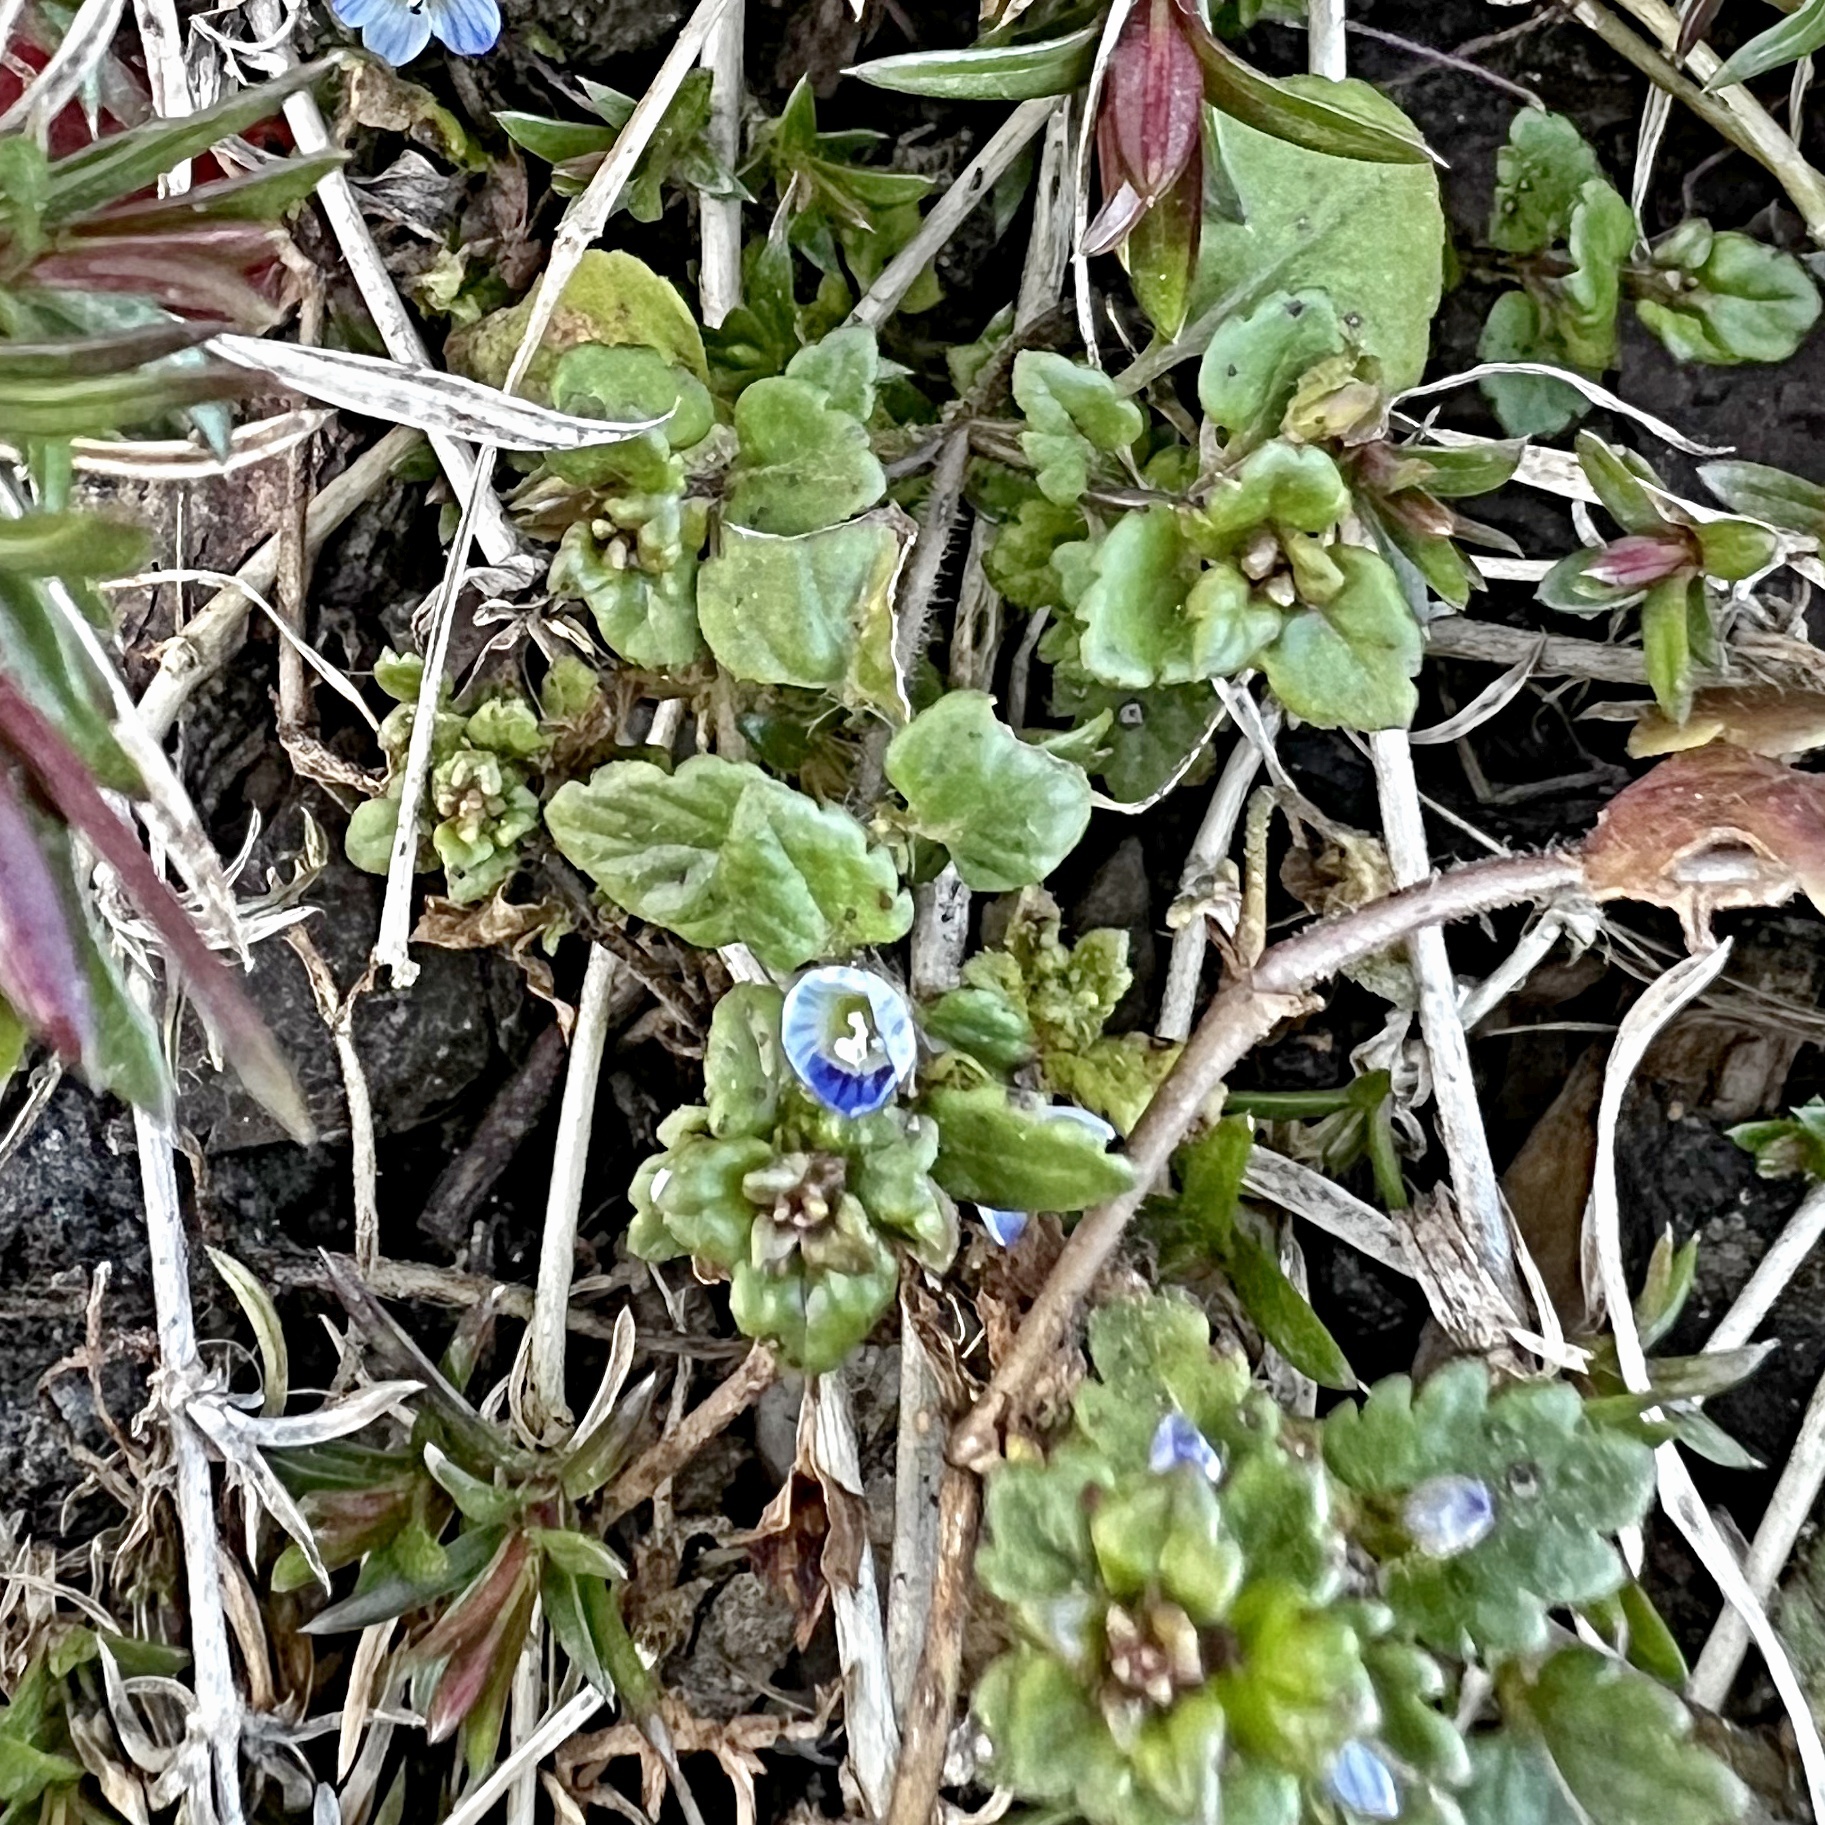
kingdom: Plantae
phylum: Tracheophyta
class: Magnoliopsida
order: Lamiales
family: Plantaginaceae
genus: Veronica
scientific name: Veronica polita
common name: Grey field-speedwell
